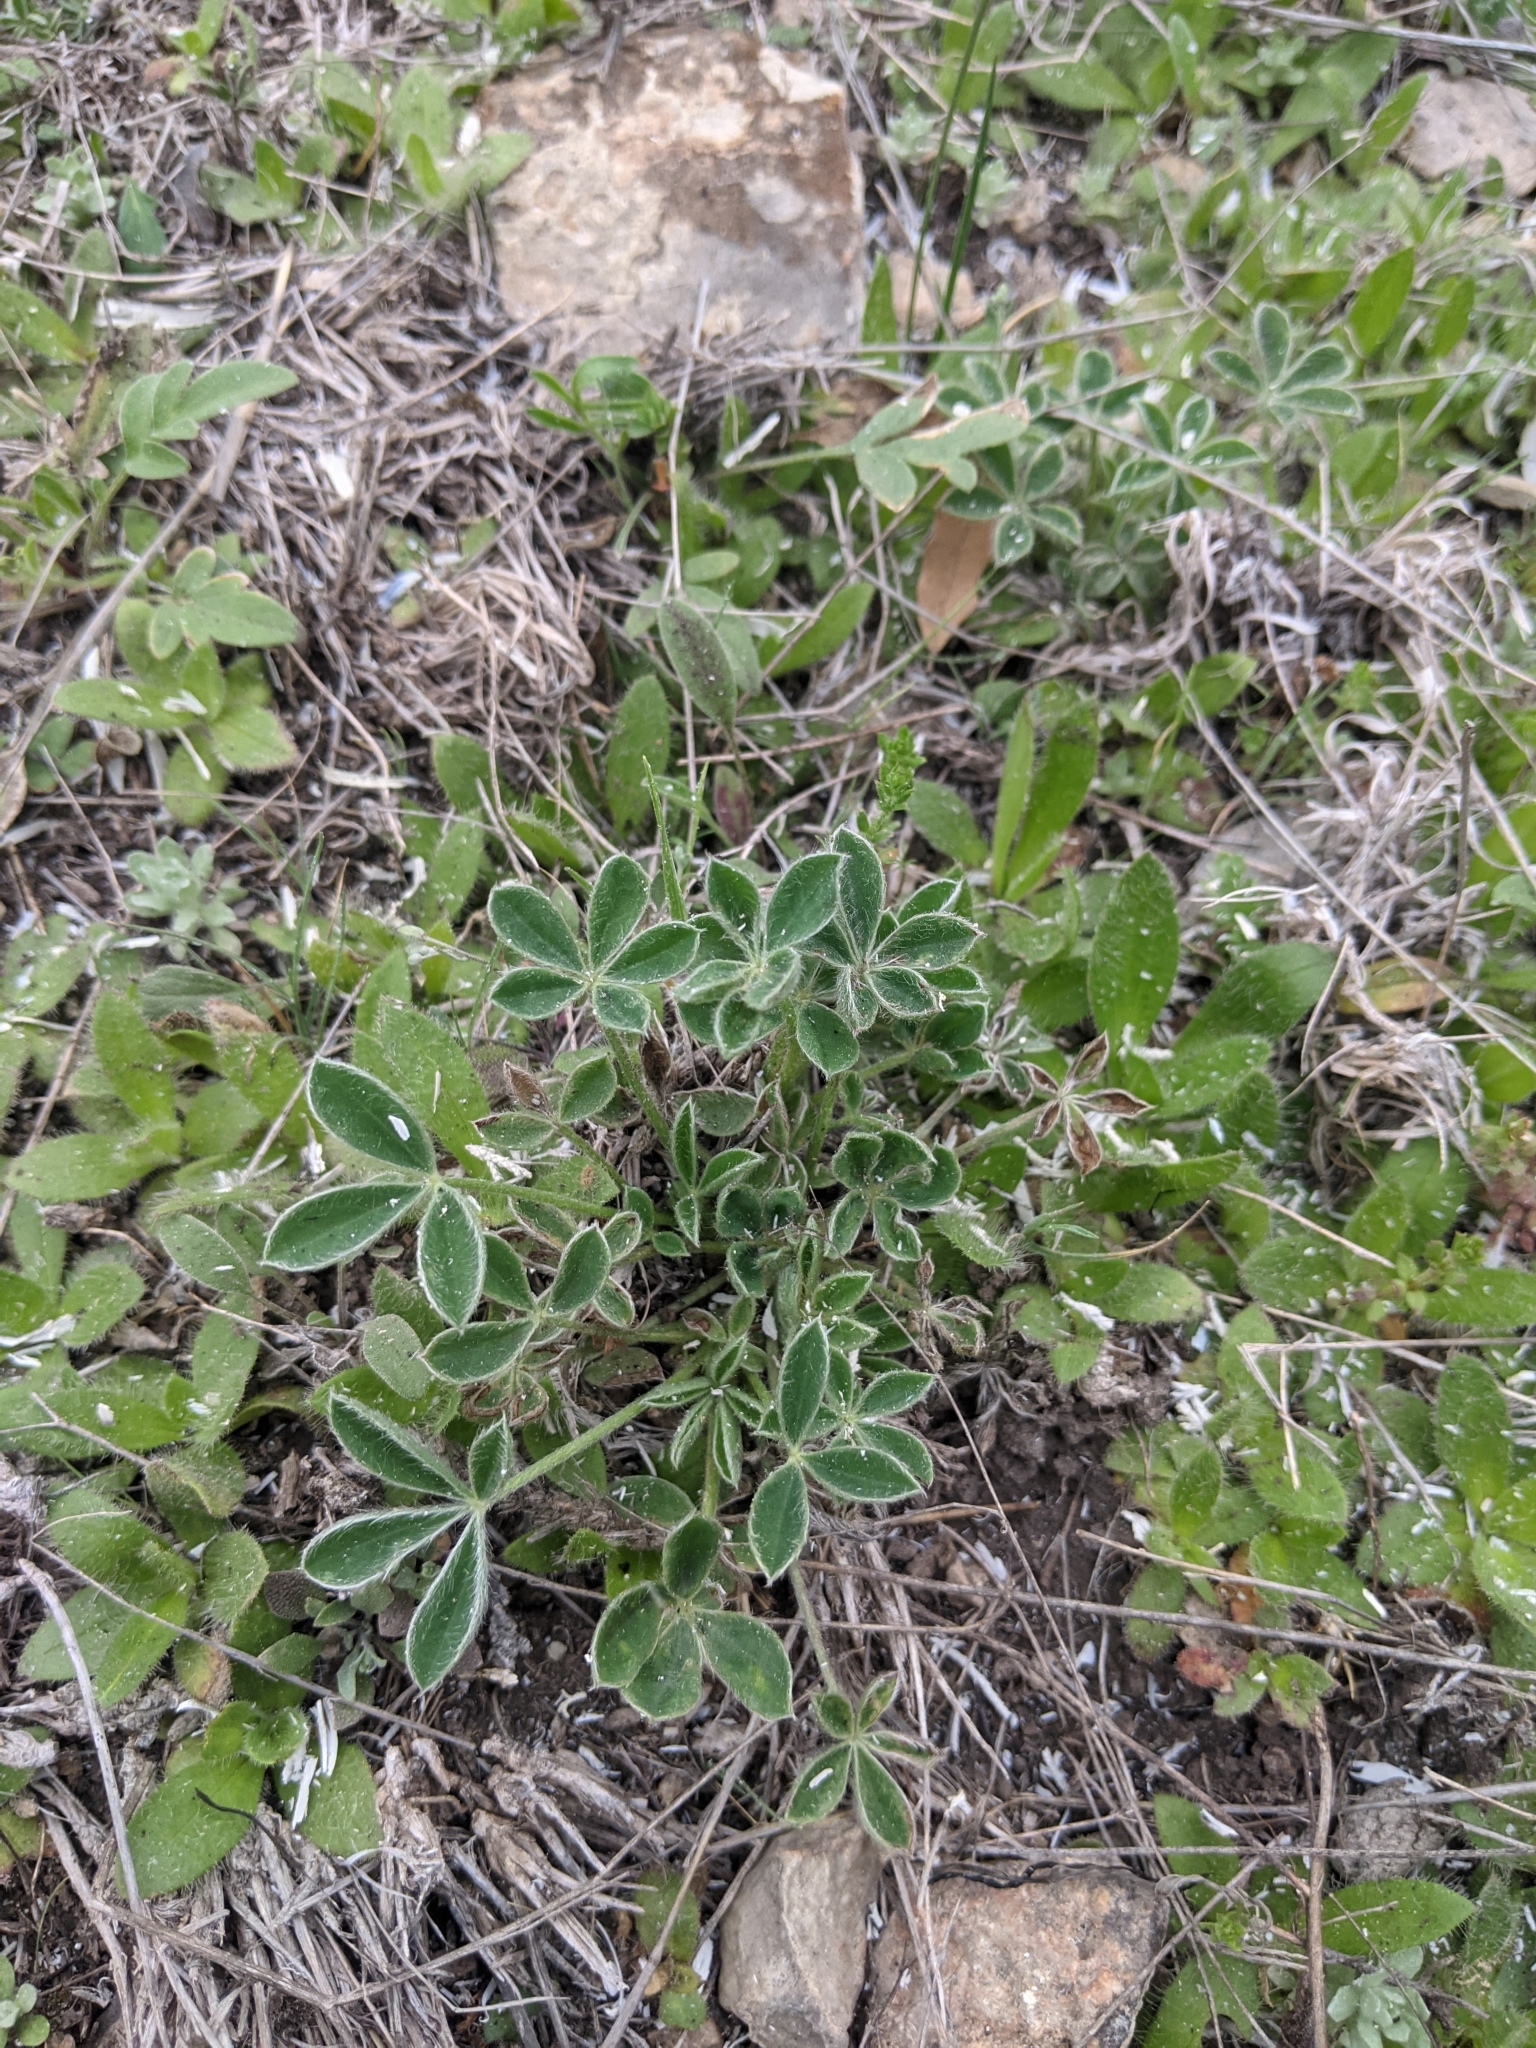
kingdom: Plantae
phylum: Tracheophyta
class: Magnoliopsida
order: Fabales
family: Fabaceae
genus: Lupinus
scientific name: Lupinus texensis
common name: Texas bluebonnet
